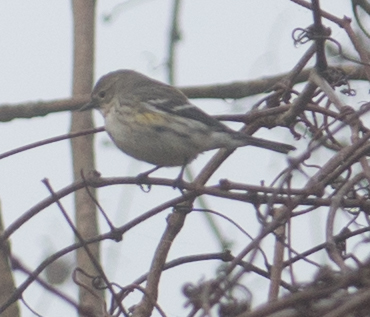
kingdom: Animalia
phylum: Chordata
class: Aves
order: Passeriformes
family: Parulidae
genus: Setophaga
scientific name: Setophaga coronata
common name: Myrtle warbler
